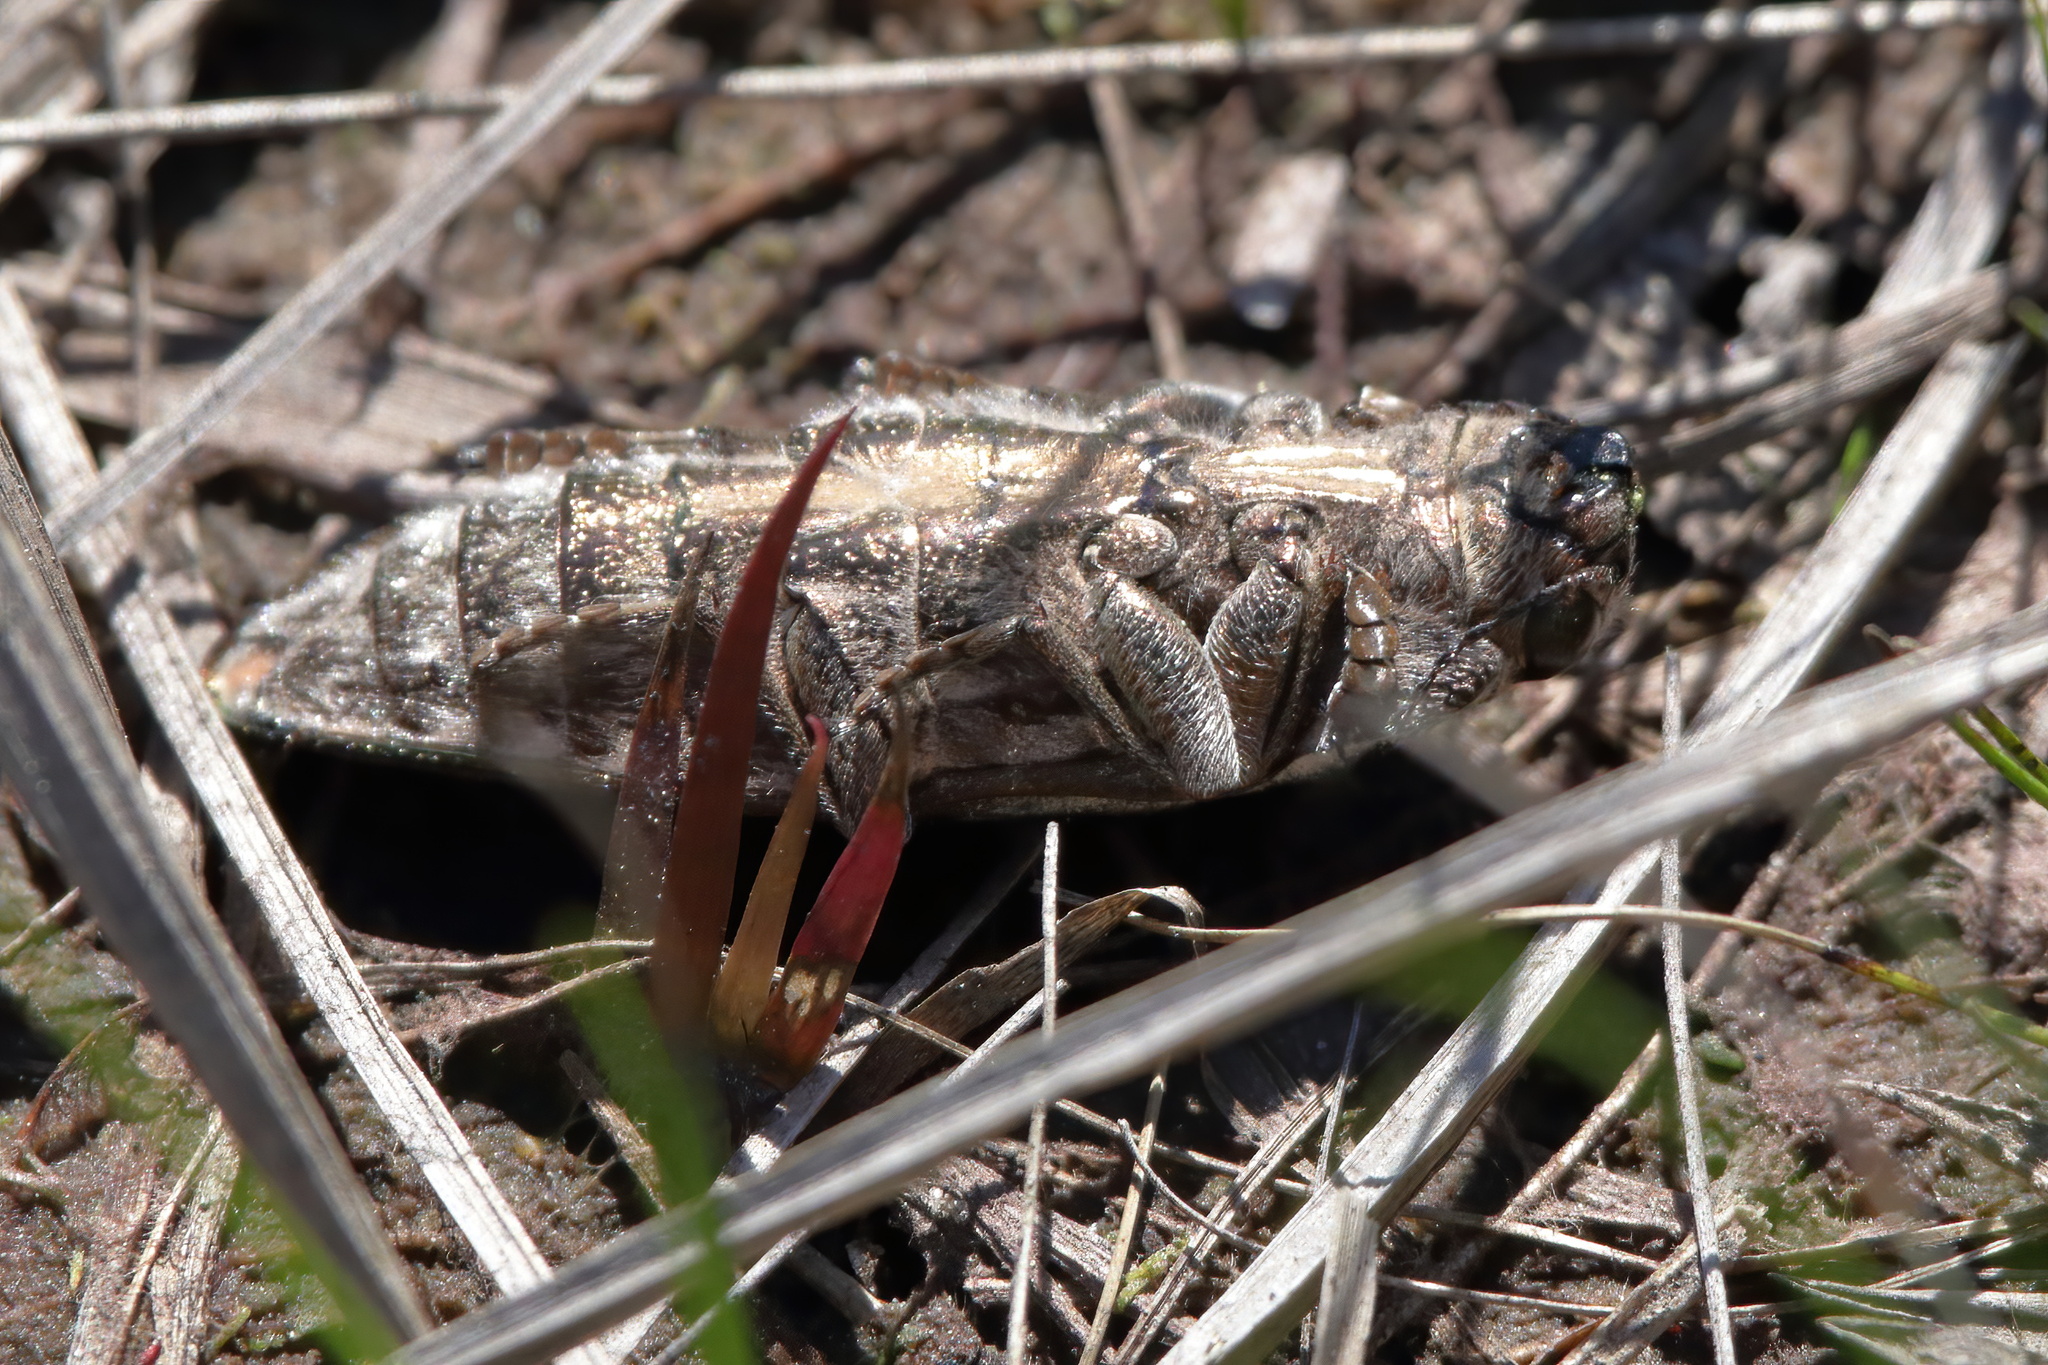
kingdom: Animalia
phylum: Arthropoda
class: Insecta
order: Coleoptera
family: Buprestidae
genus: Chalcophora
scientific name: Chalcophora georgiana
